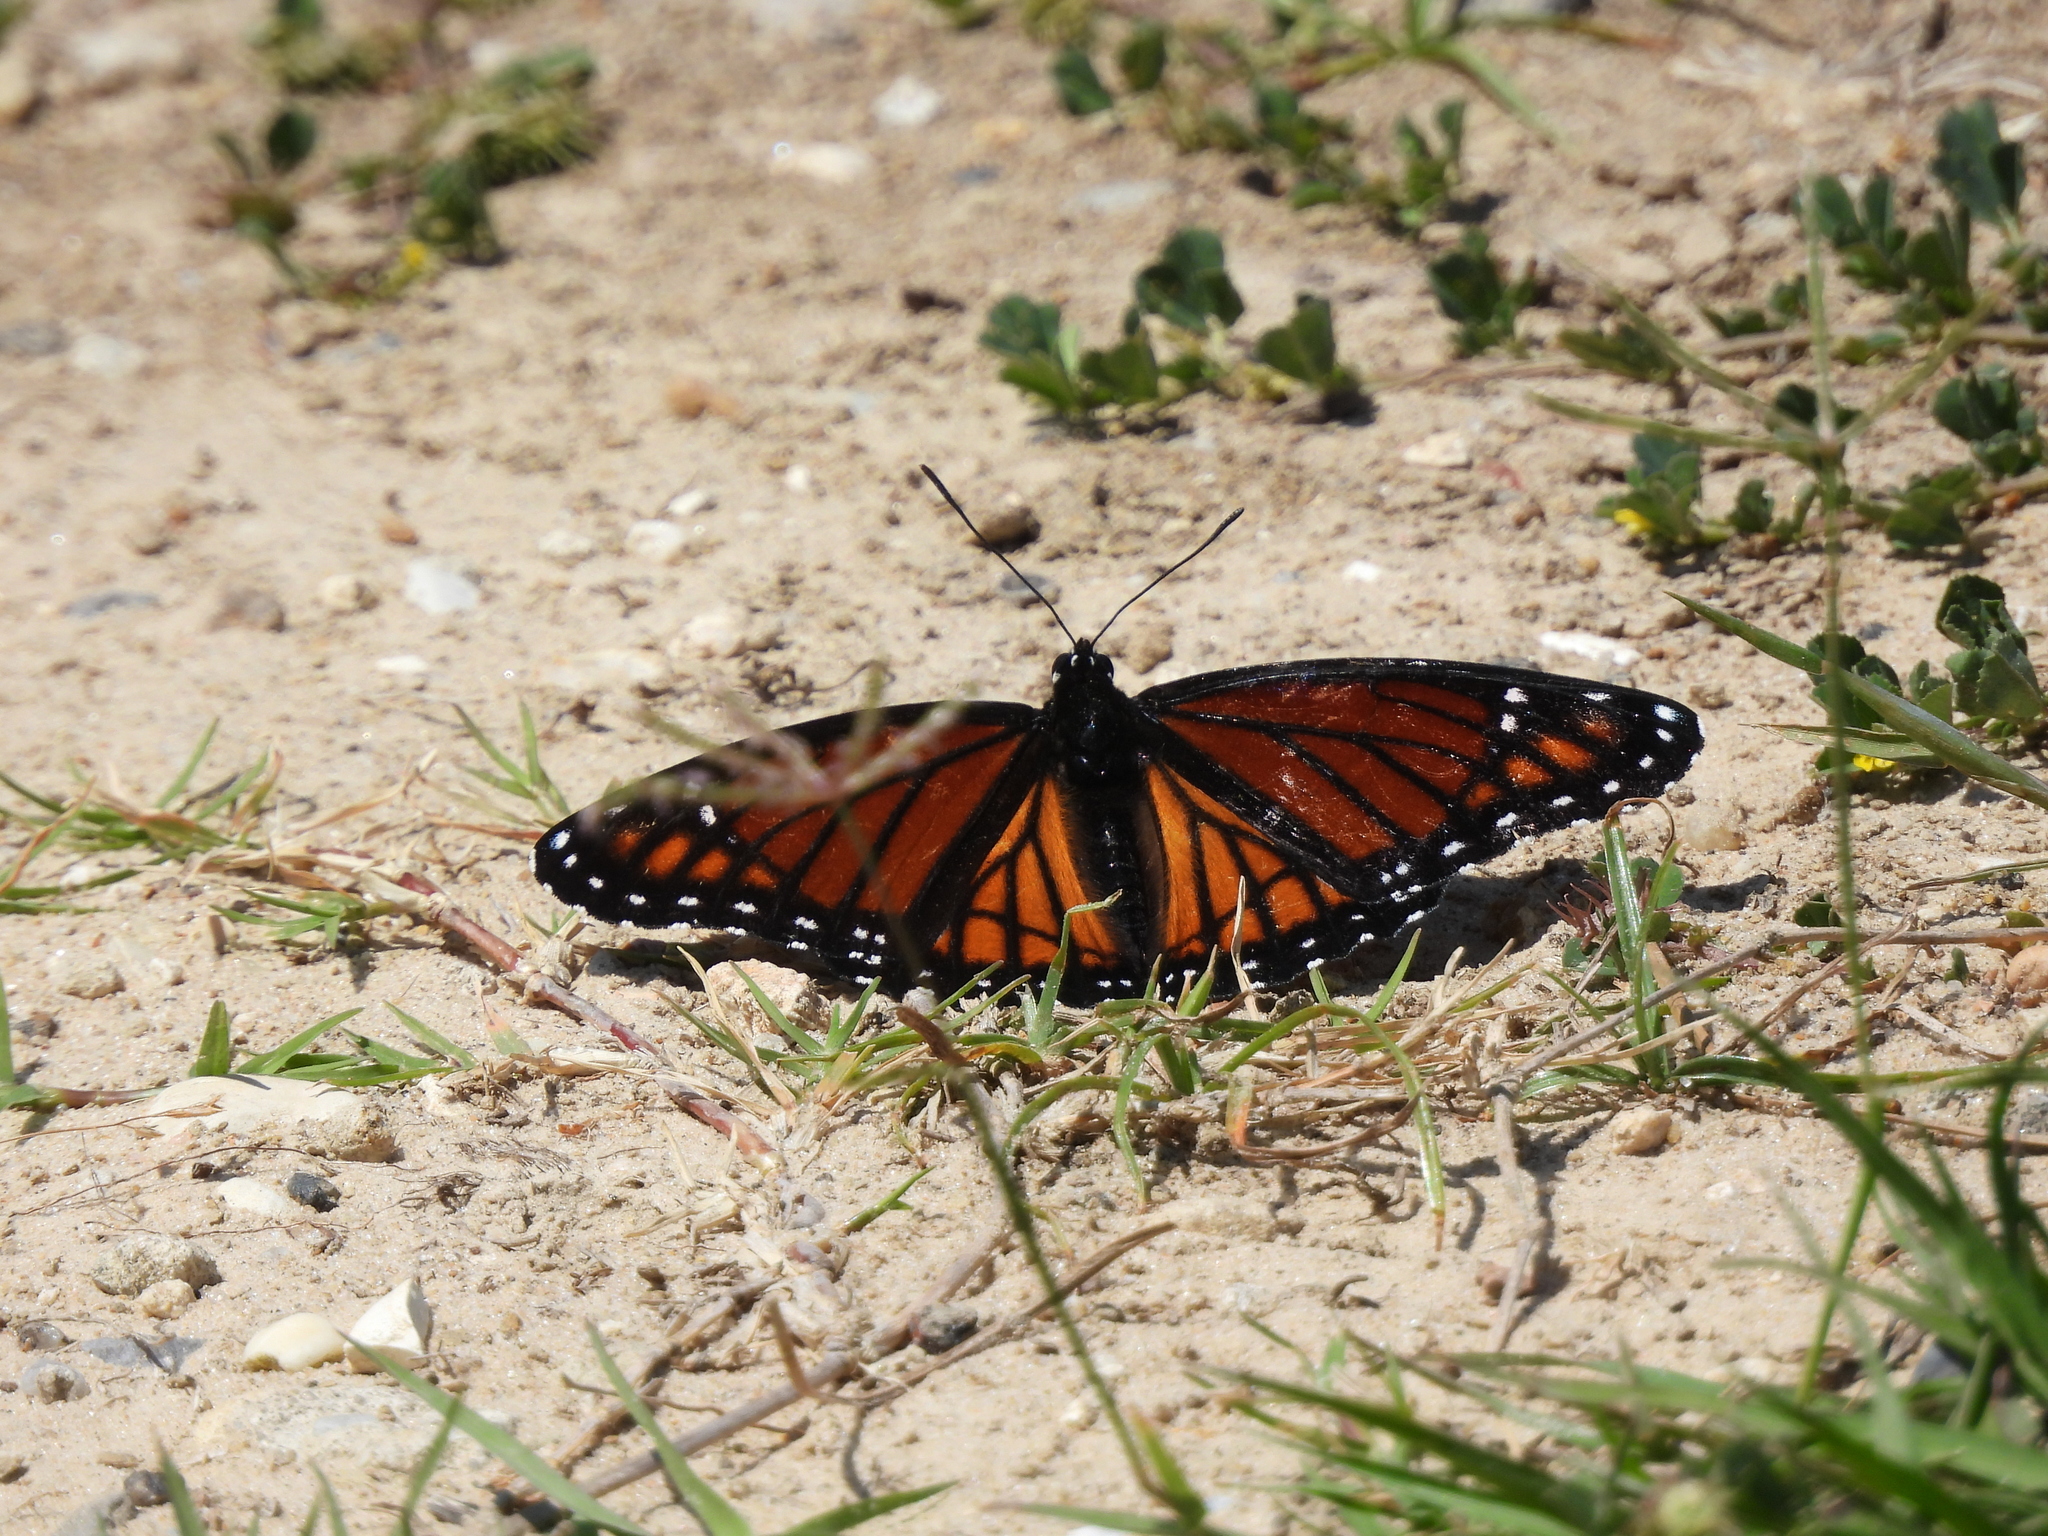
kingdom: Animalia
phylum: Arthropoda
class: Insecta
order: Lepidoptera
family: Nymphalidae
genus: Limenitis
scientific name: Limenitis archippus
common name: Viceroy
